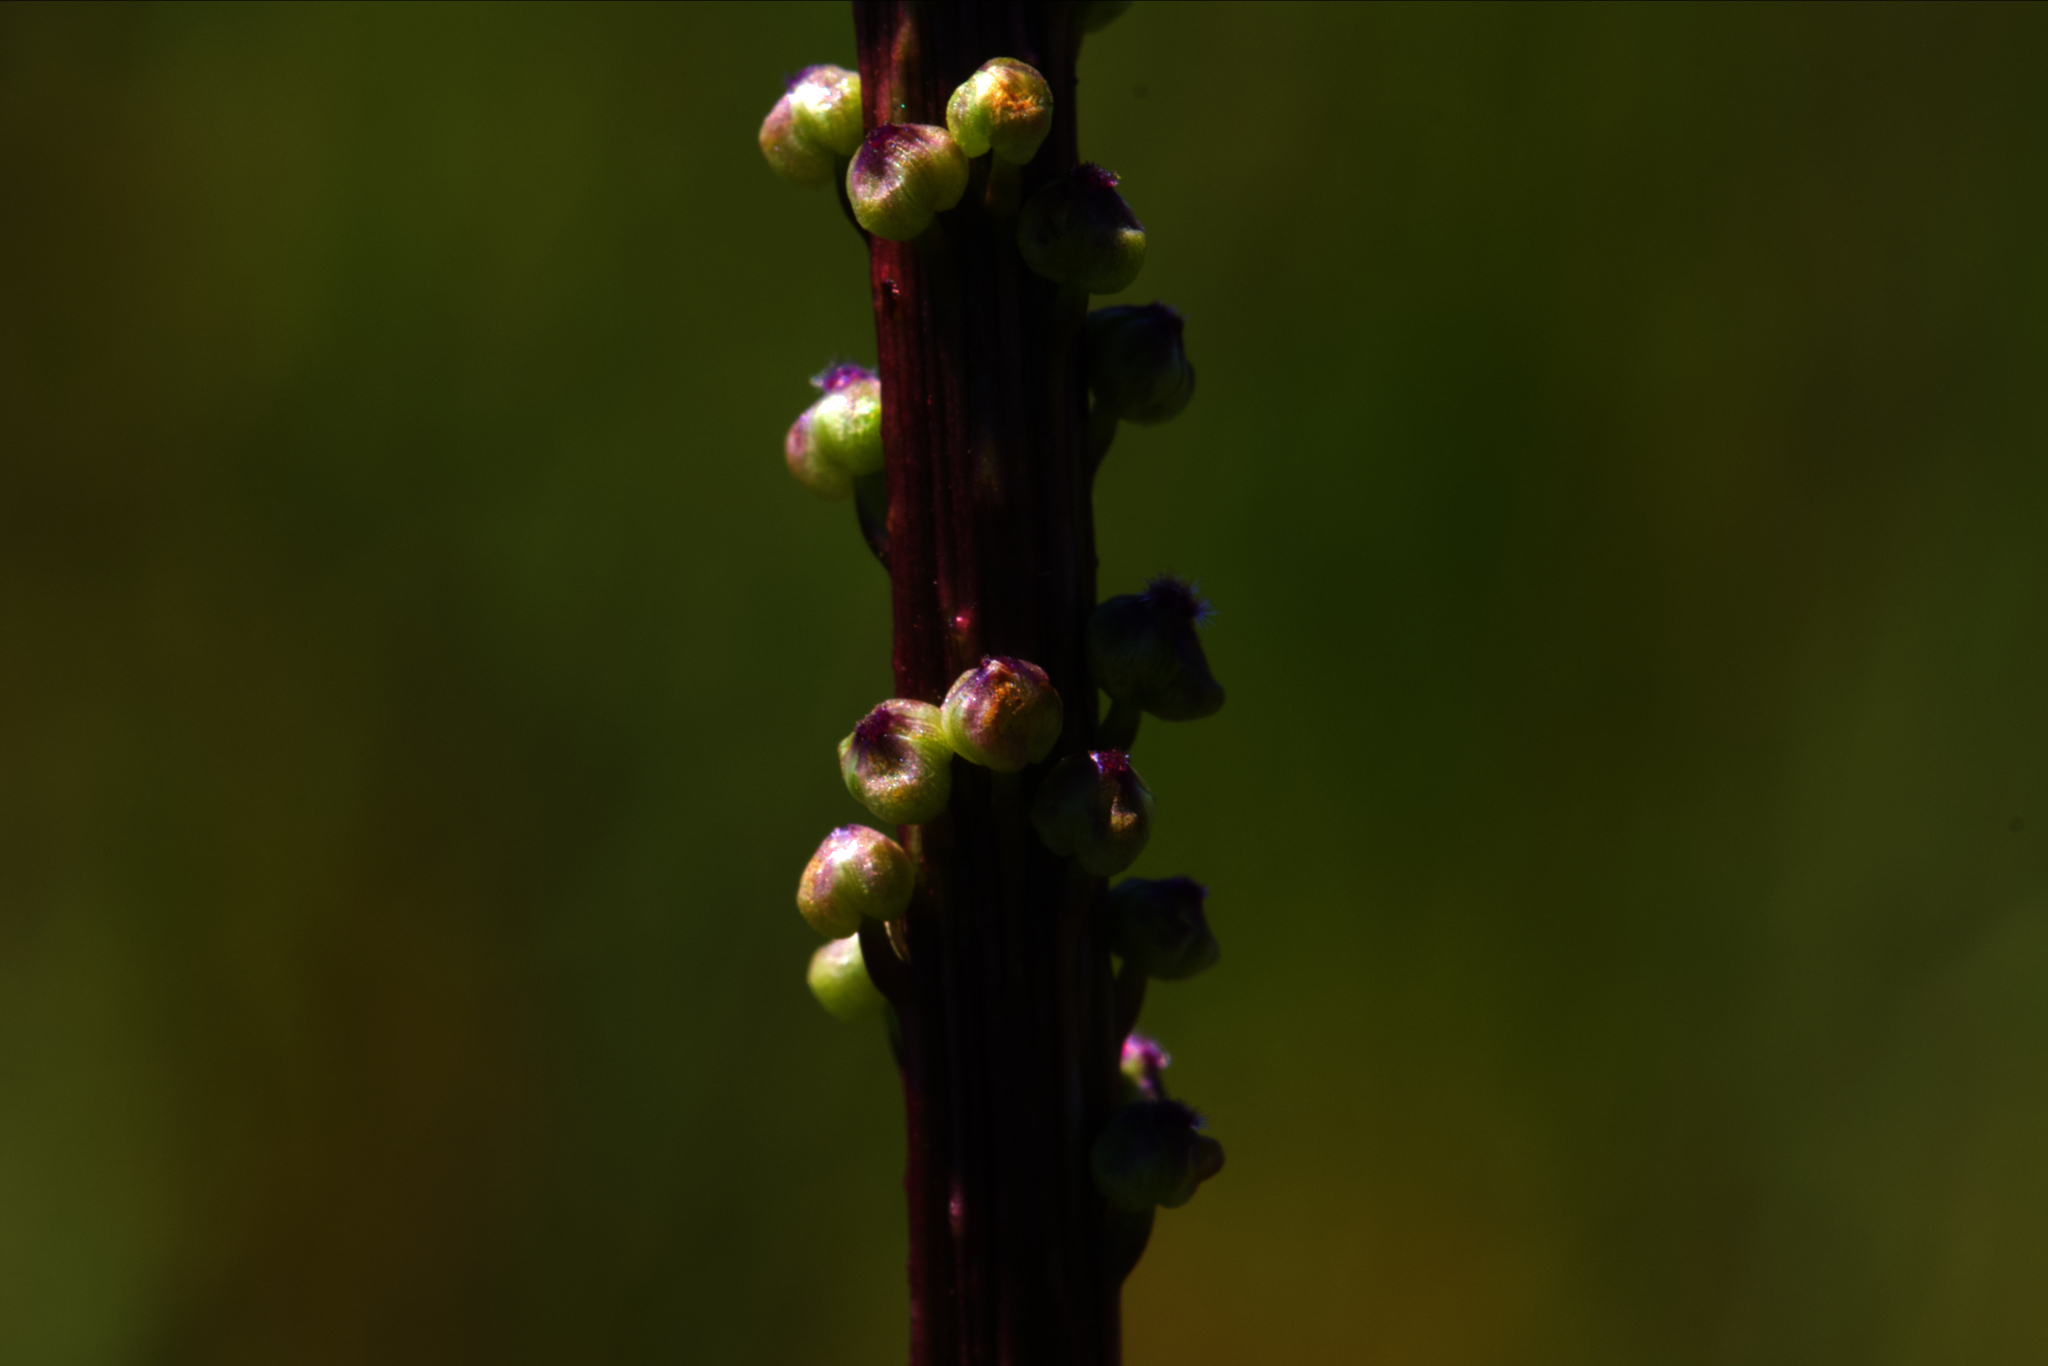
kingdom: Plantae
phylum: Tracheophyta
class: Liliopsida
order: Alismatales
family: Juncaginaceae
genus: Triglochin
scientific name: Triglochin maritima
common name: Sea arrowgrass
